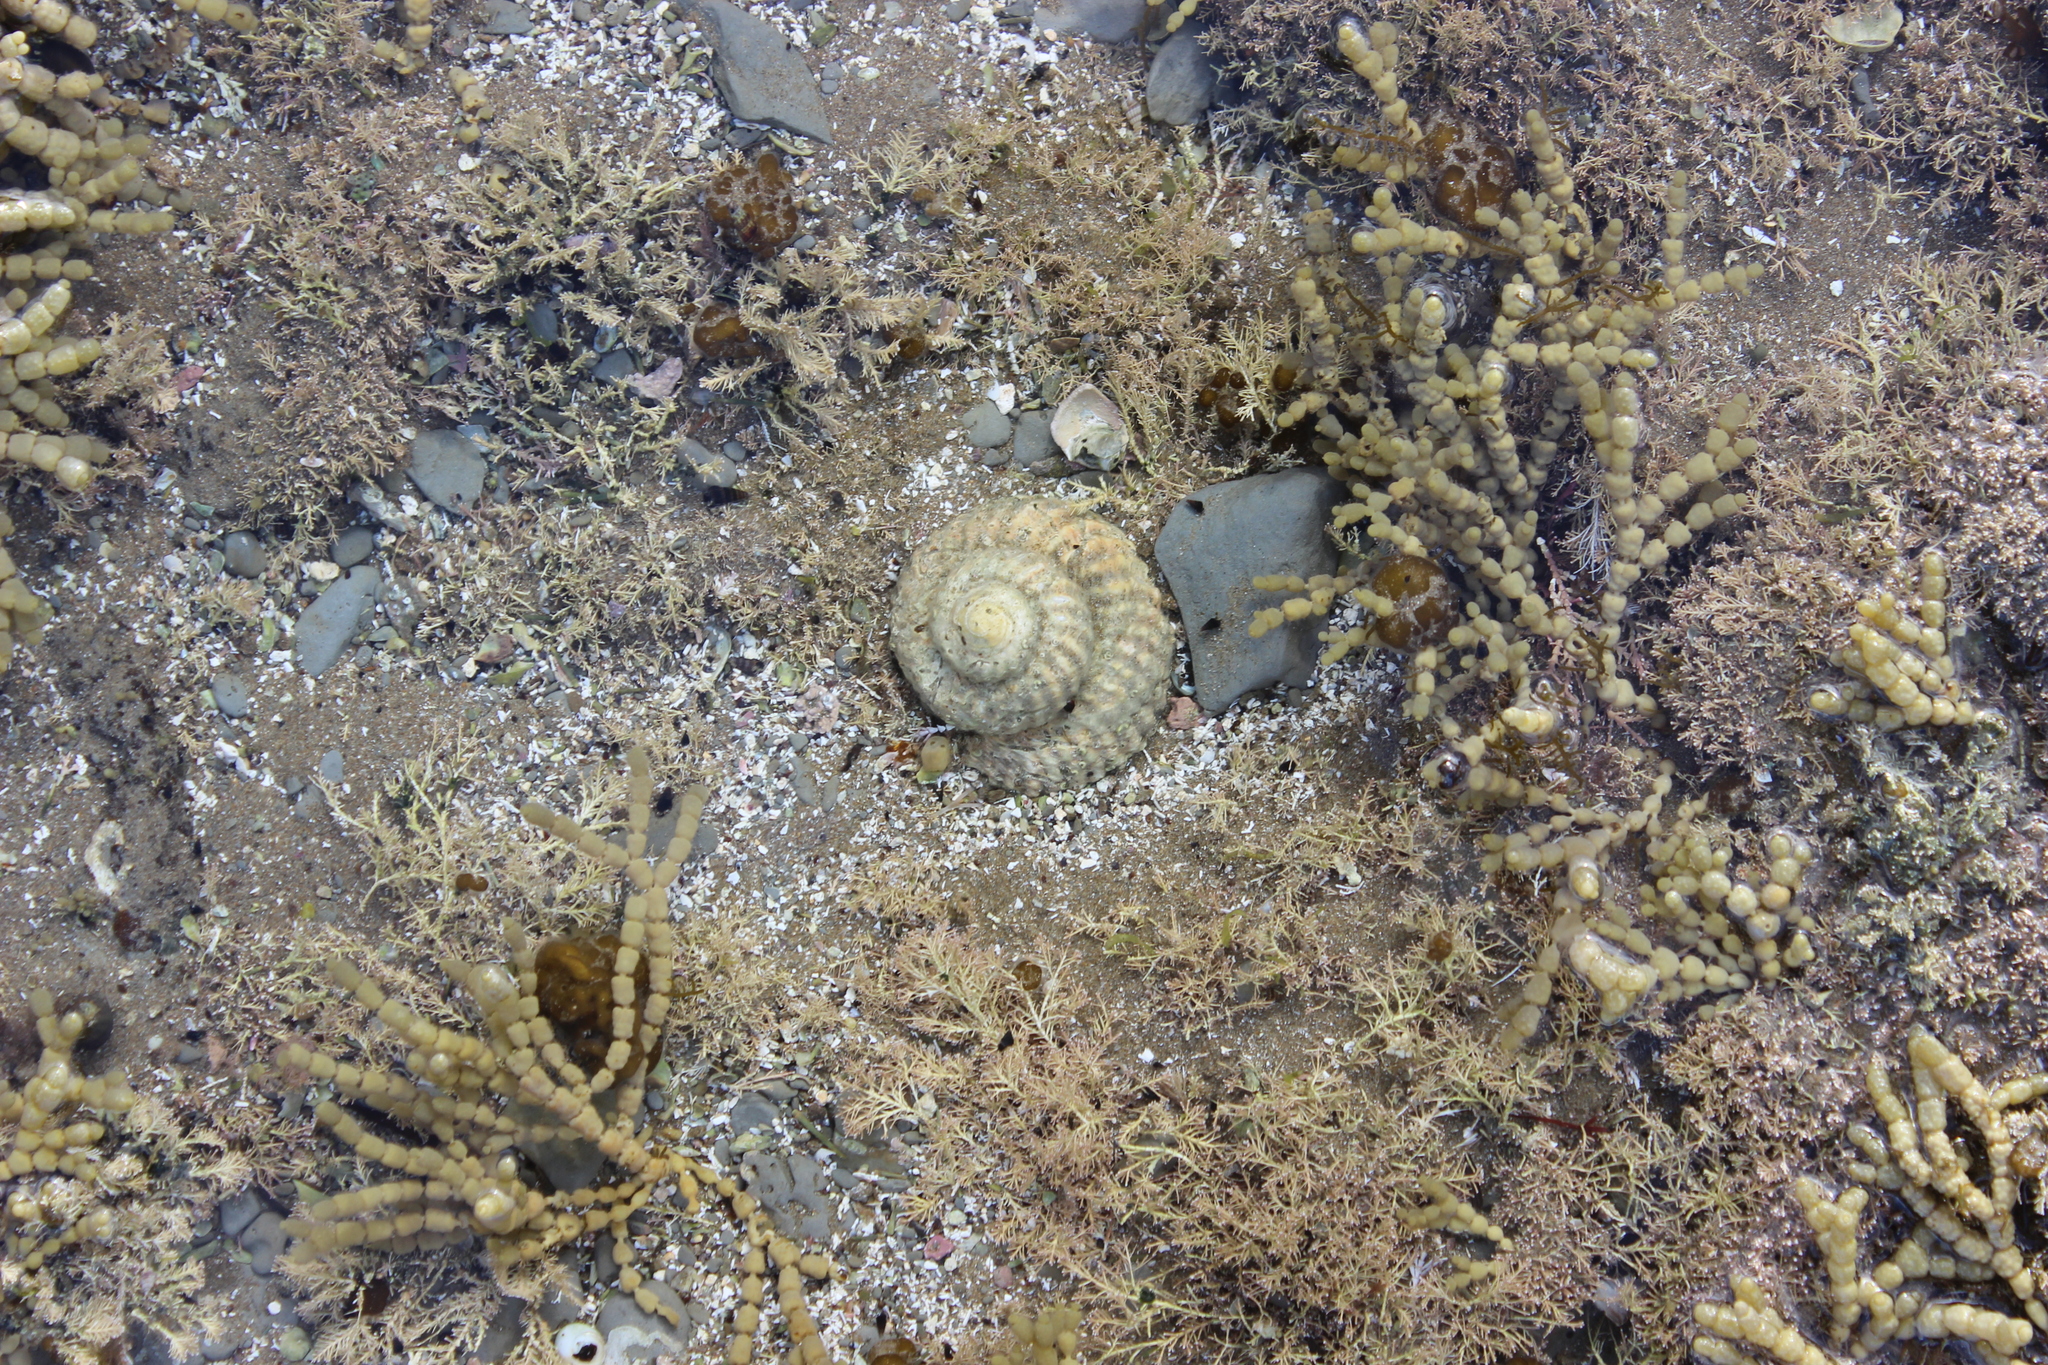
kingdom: Animalia
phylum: Mollusca
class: Gastropoda
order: Trochida
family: Turbinidae
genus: Cookia
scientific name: Cookia sulcata
